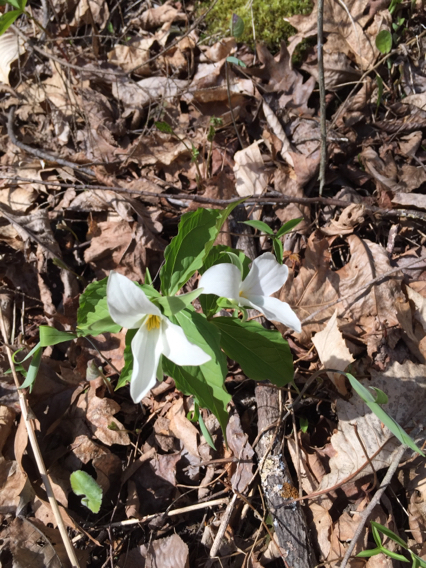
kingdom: Plantae
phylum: Tracheophyta
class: Liliopsida
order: Liliales
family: Melanthiaceae
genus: Trillium
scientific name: Trillium grandiflorum
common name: Great white trillium
